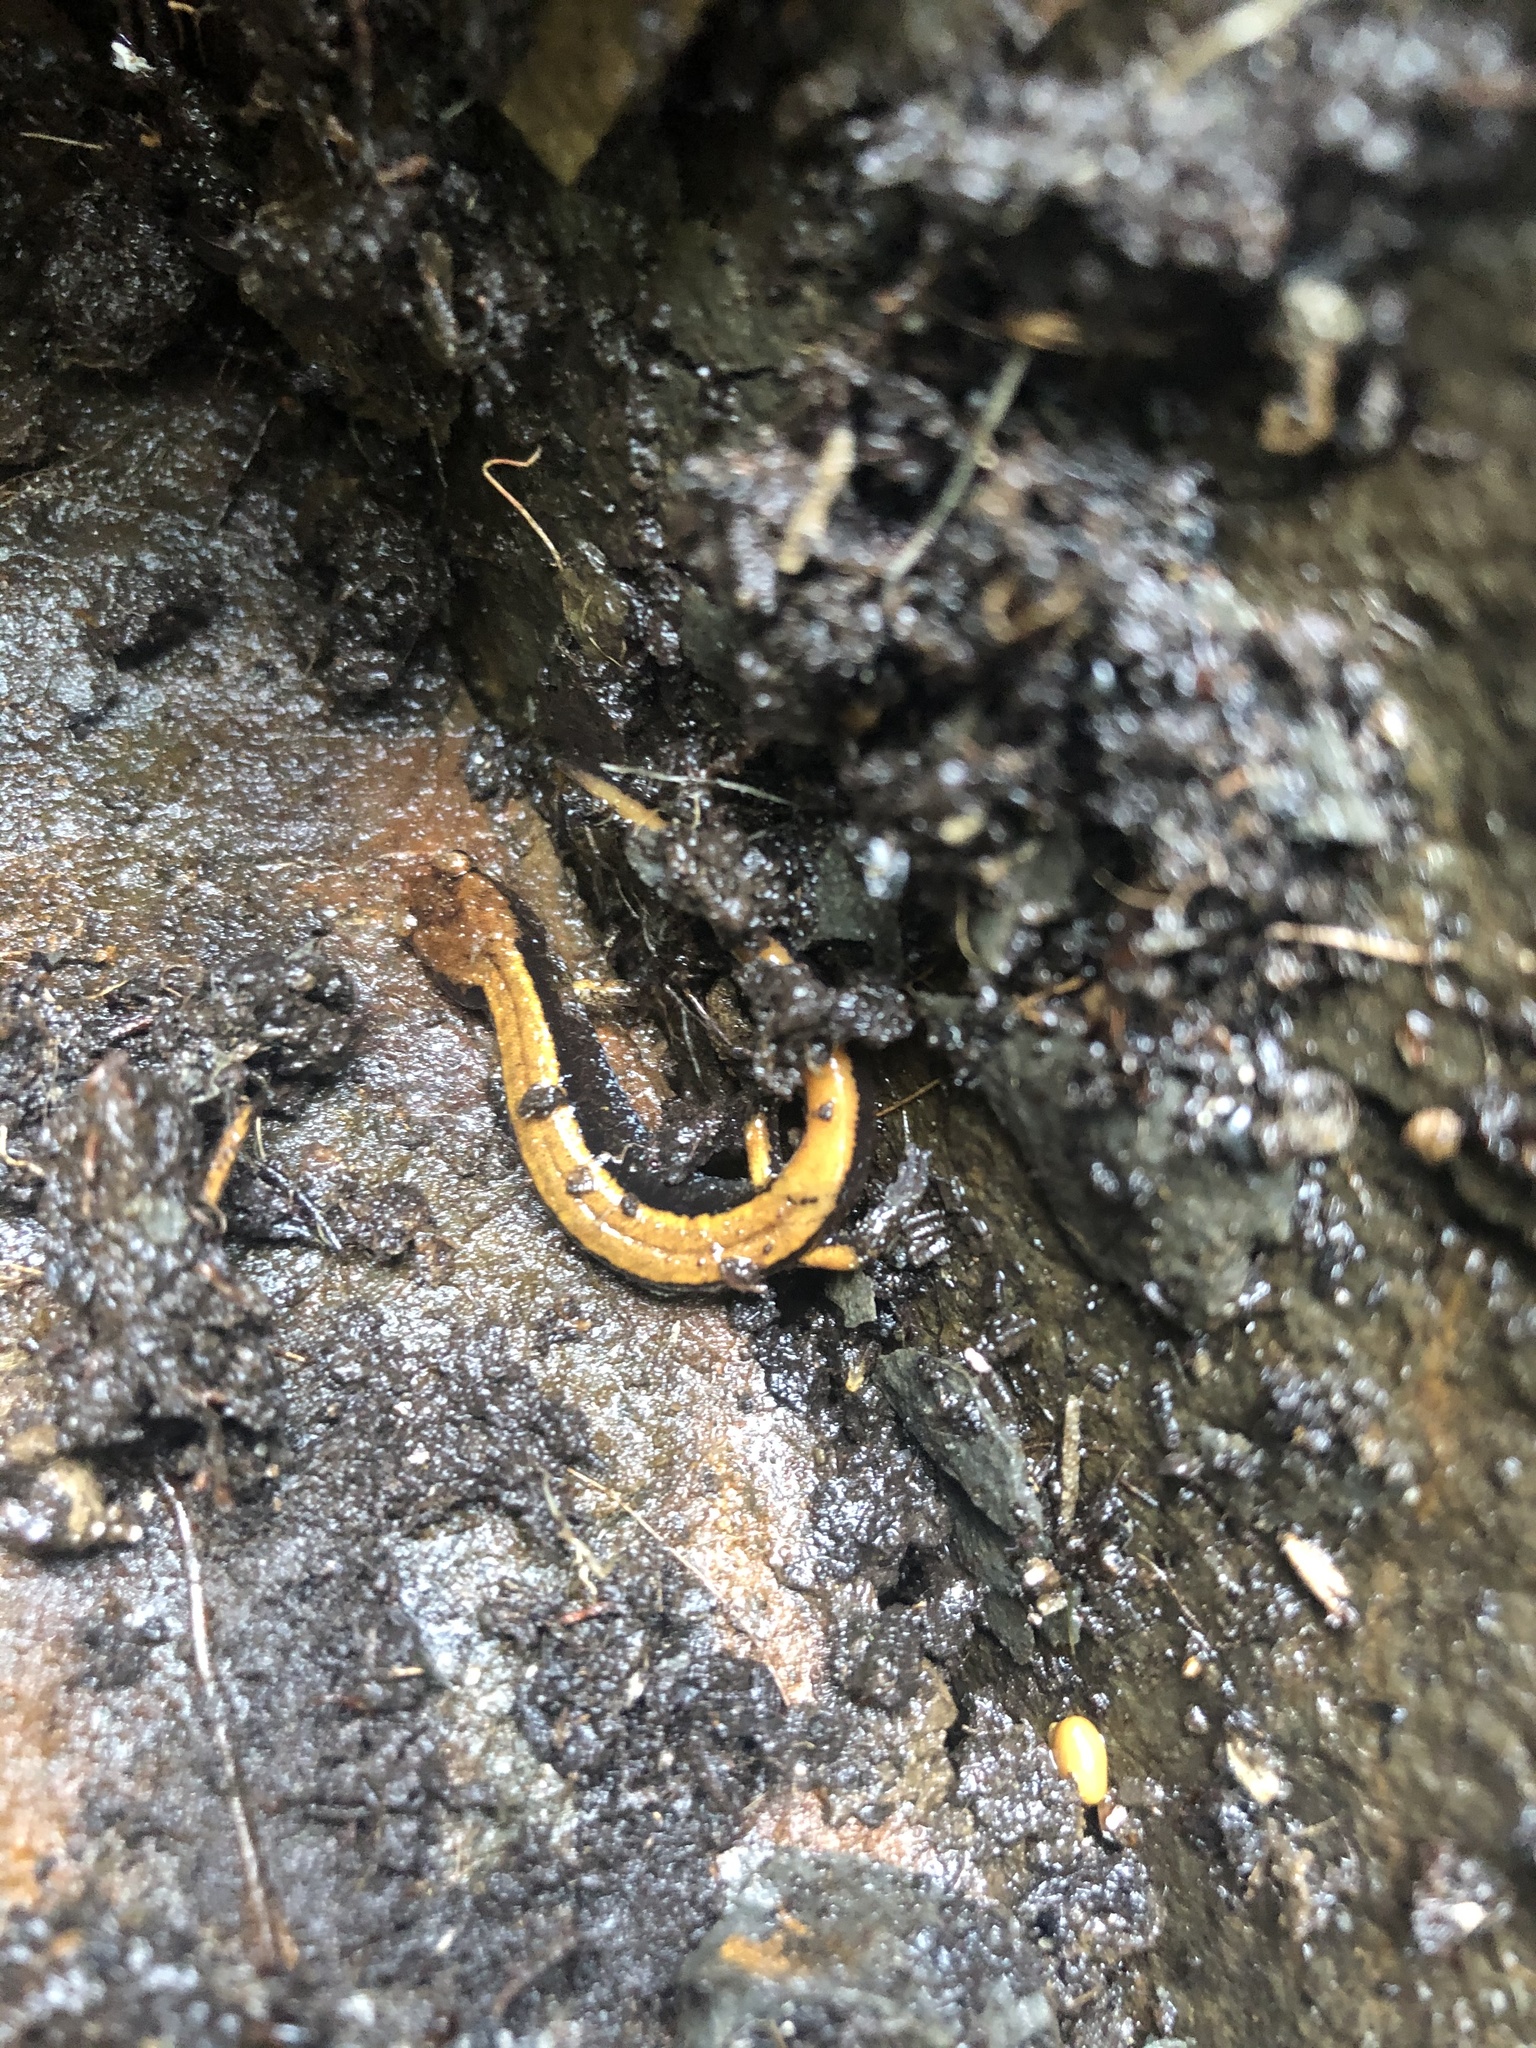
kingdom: Animalia
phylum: Chordata
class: Amphibia
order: Caudata
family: Plethodontidae
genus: Plethodon
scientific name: Plethodon vehiculum
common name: Western red-backed salamander
